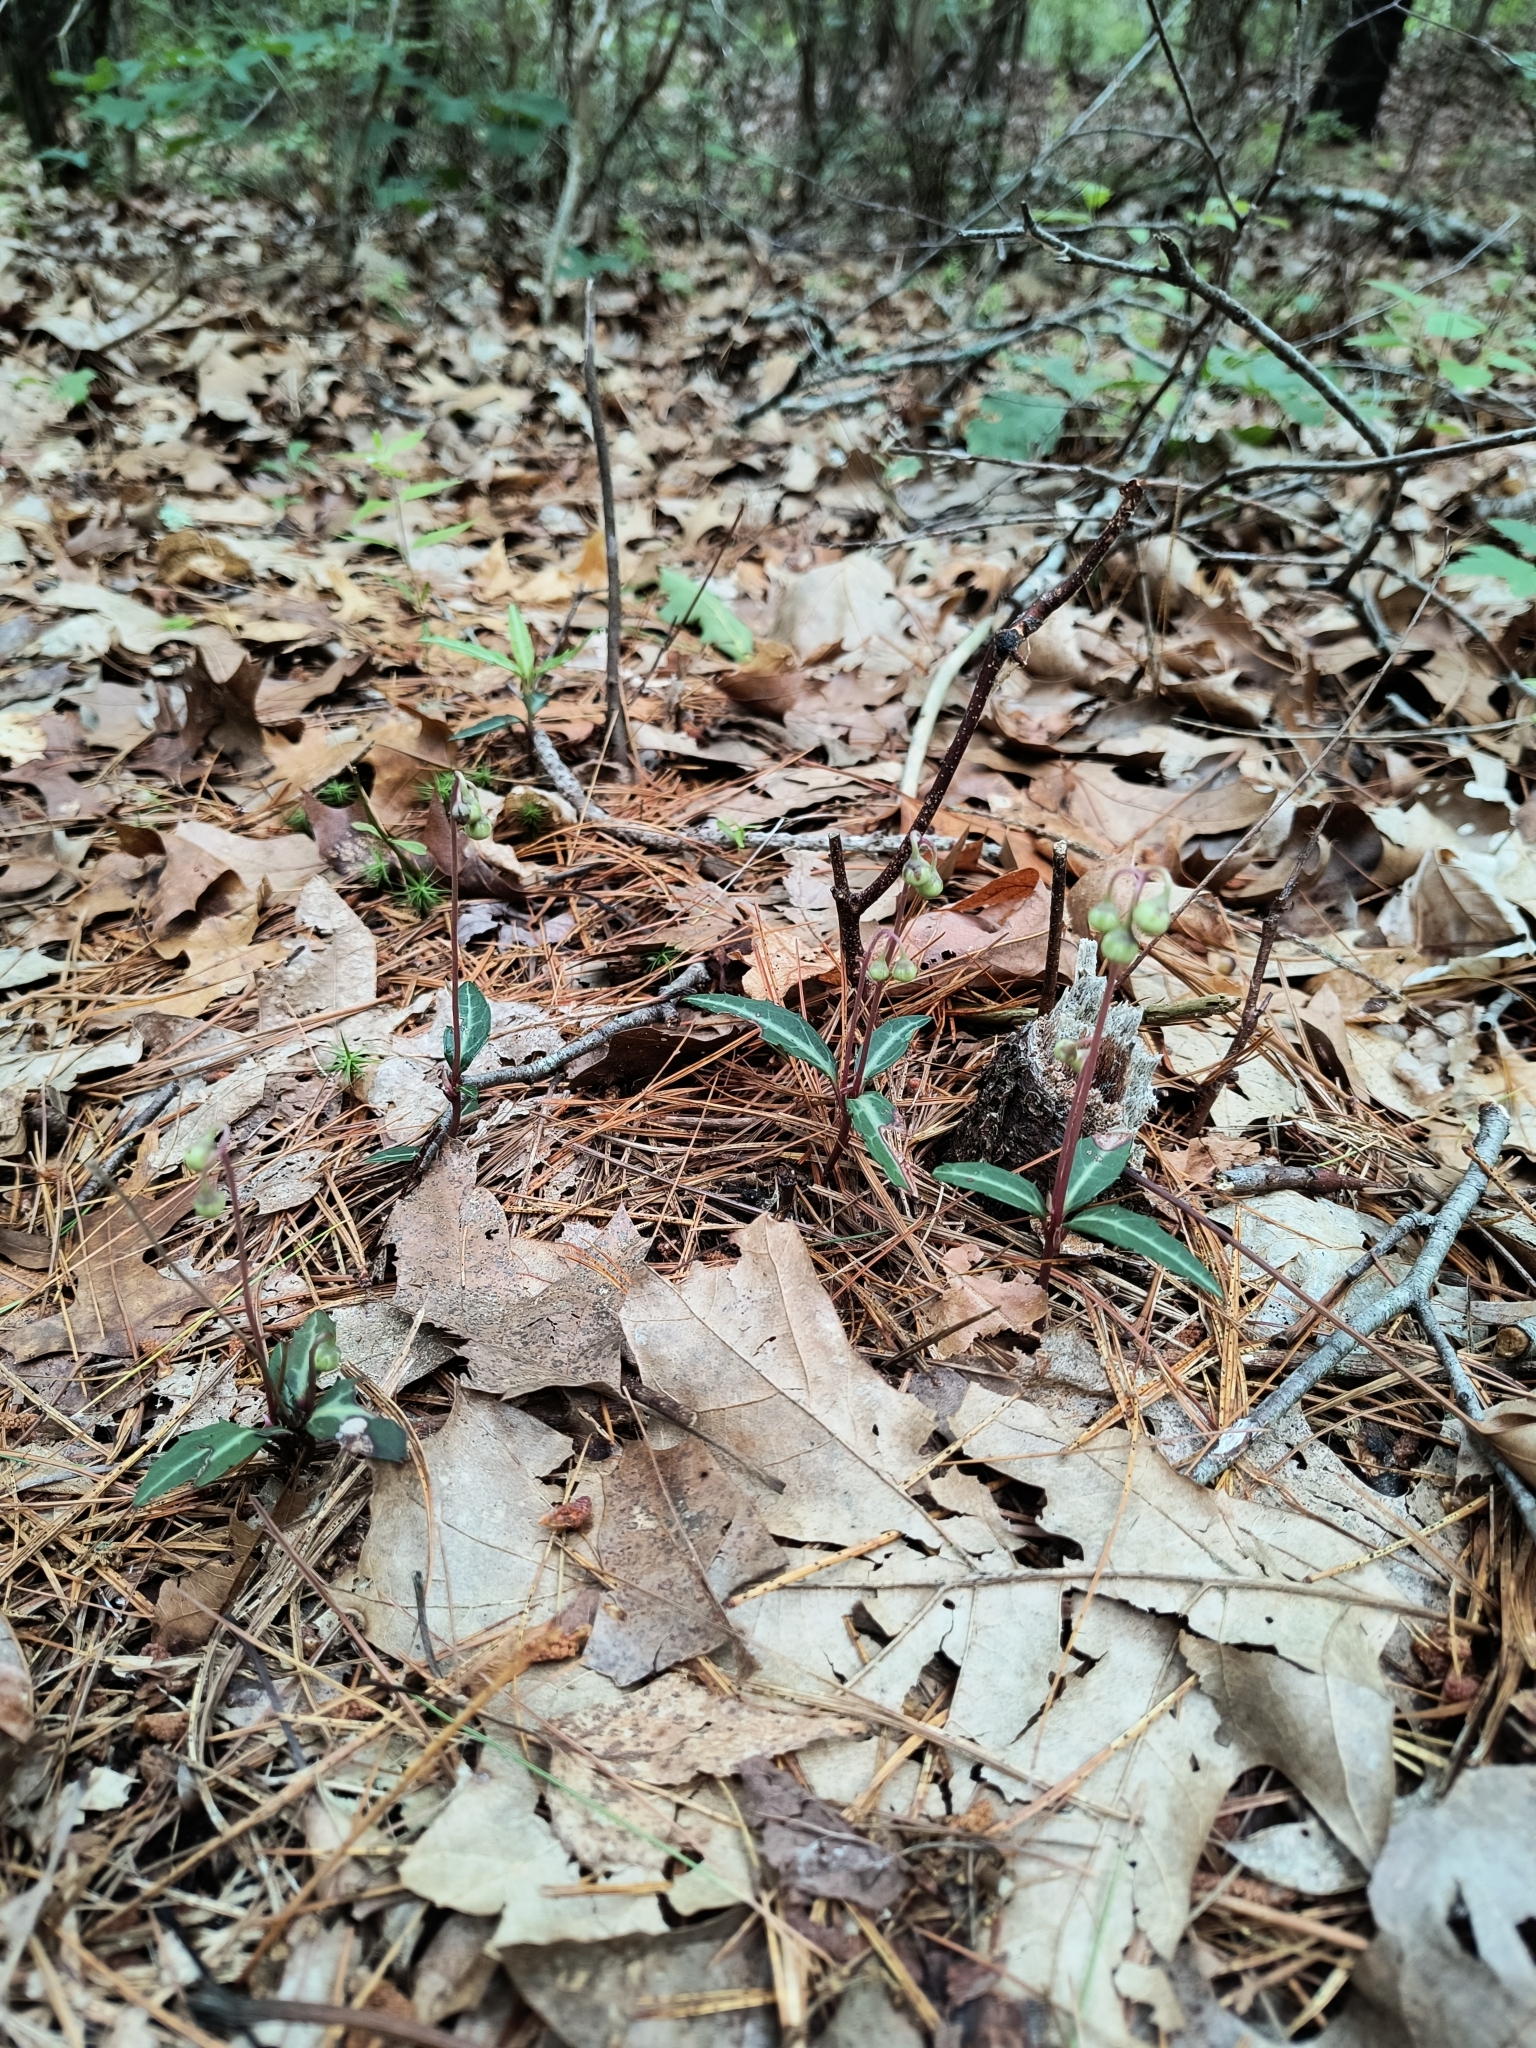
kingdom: Plantae
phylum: Tracheophyta
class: Magnoliopsida
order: Ericales
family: Ericaceae
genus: Chimaphila
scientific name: Chimaphila maculata
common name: Spotted pipsissewa
